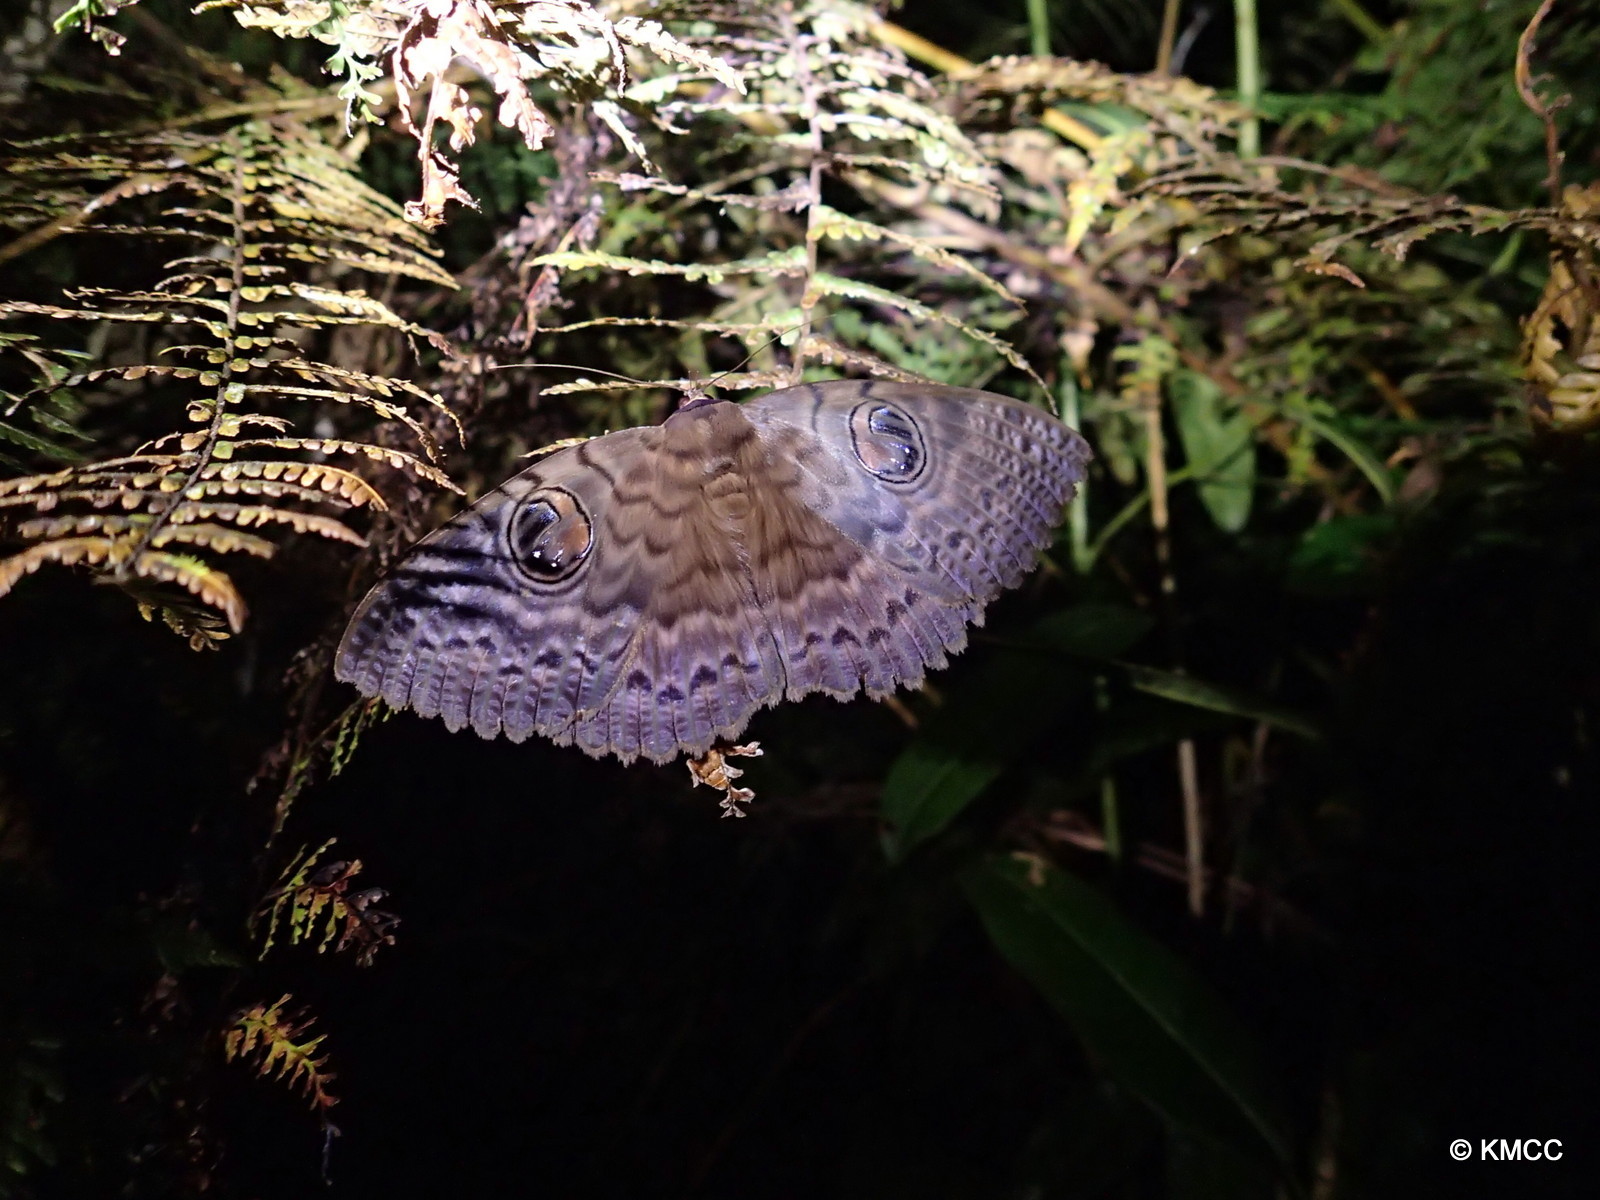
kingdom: Animalia
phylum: Arthropoda
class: Insecta
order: Lepidoptera
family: Erebidae
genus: Erebus
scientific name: Erebus walkeri
